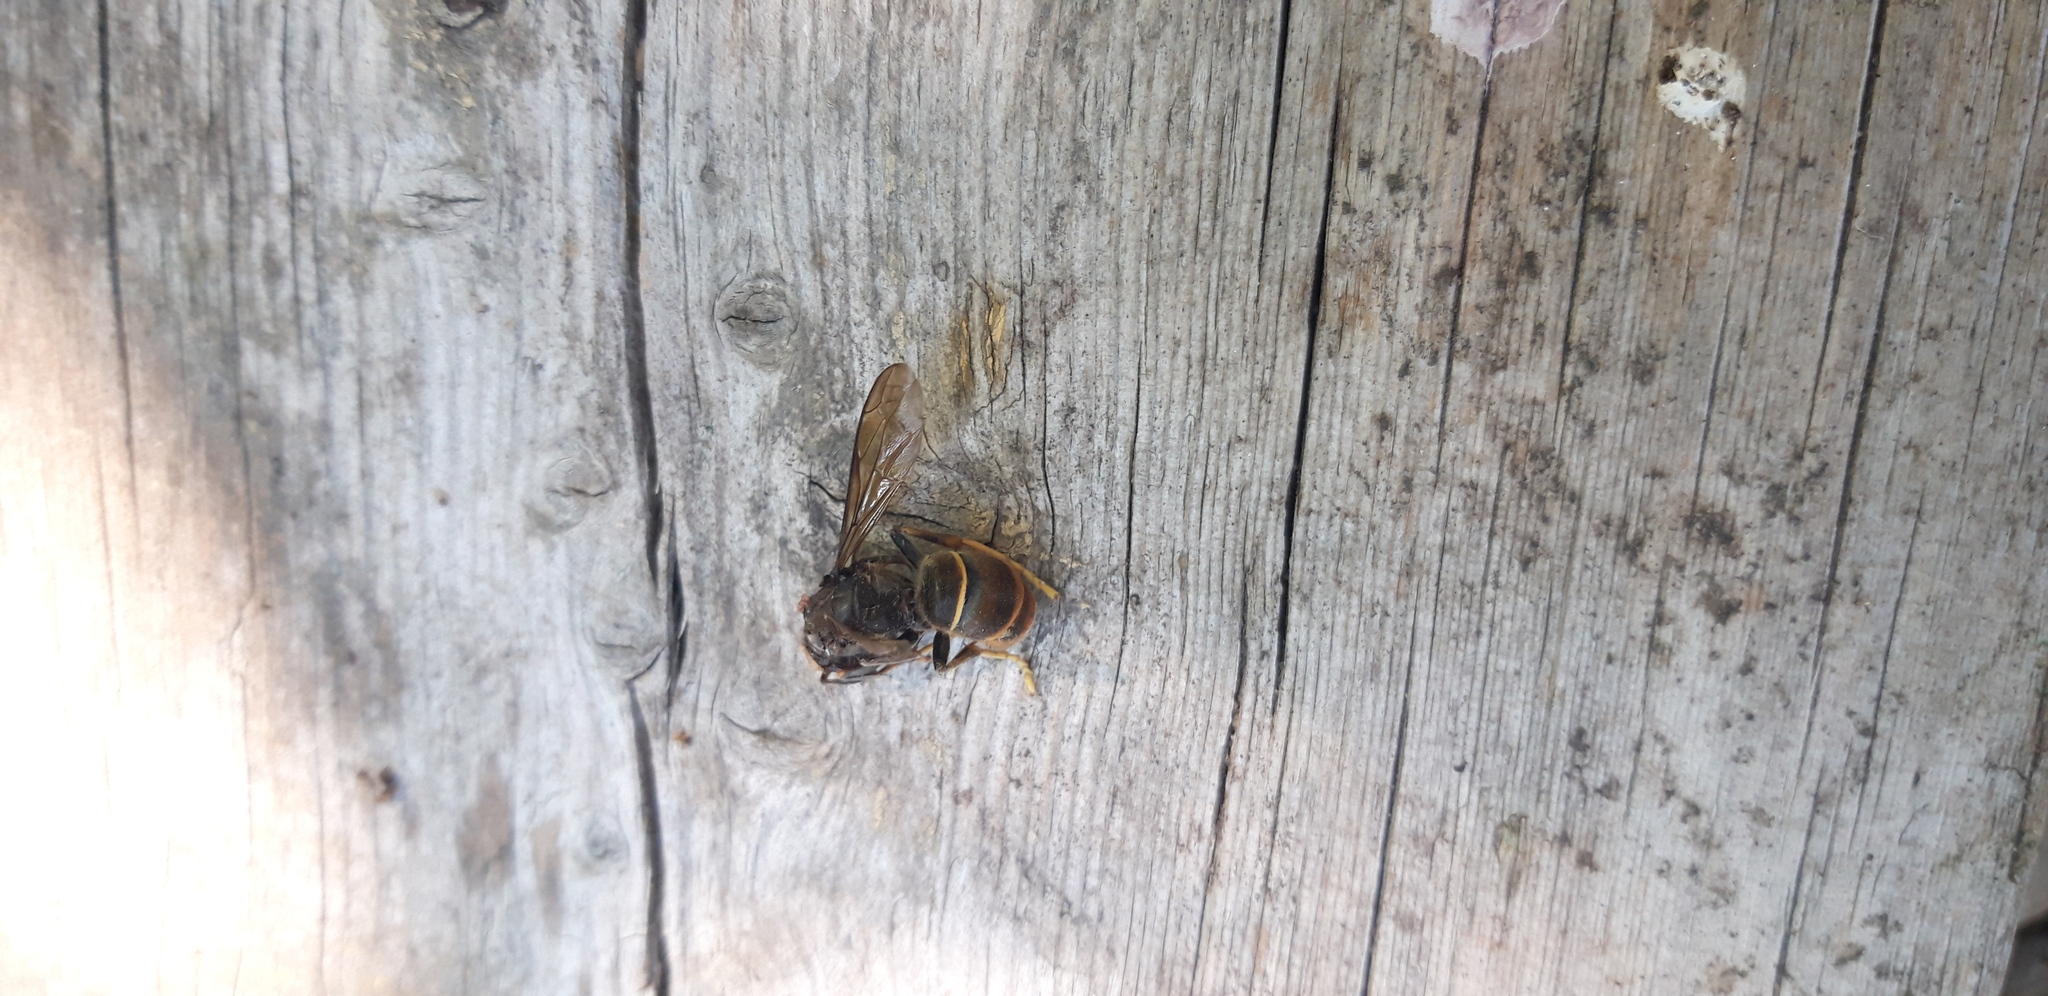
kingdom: Animalia
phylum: Arthropoda
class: Insecta
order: Hymenoptera
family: Vespidae
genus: Vespa
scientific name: Vespa velutina
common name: Asian hornet
